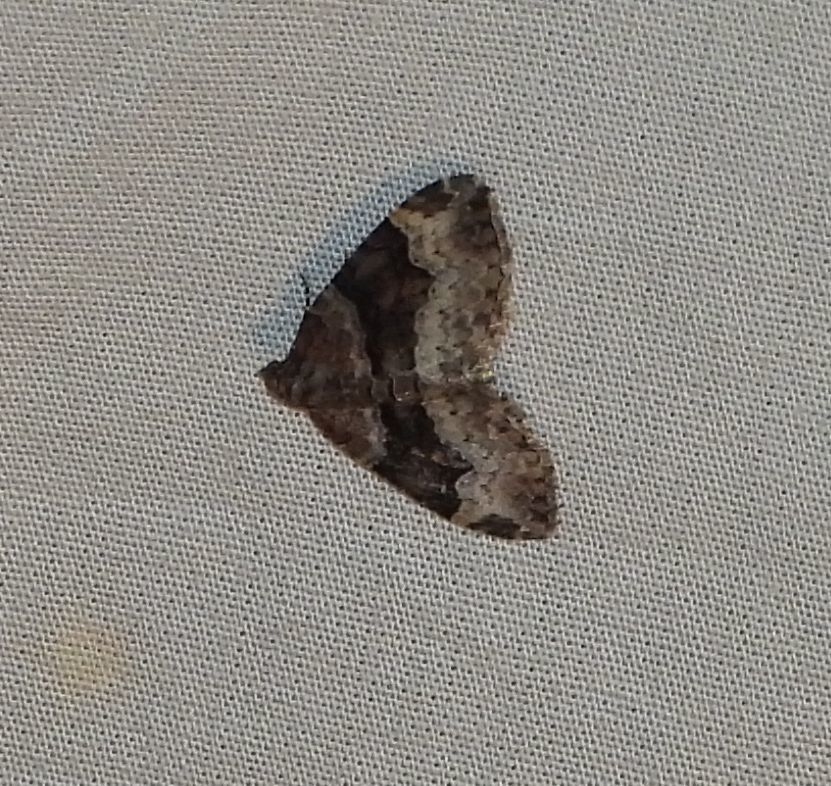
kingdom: Animalia
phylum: Arthropoda
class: Insecta
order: Lepidoptera
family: Geometridae
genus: Xanthorhoe
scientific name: Xanthorhoe lacustrata
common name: Toothed brown carpet
